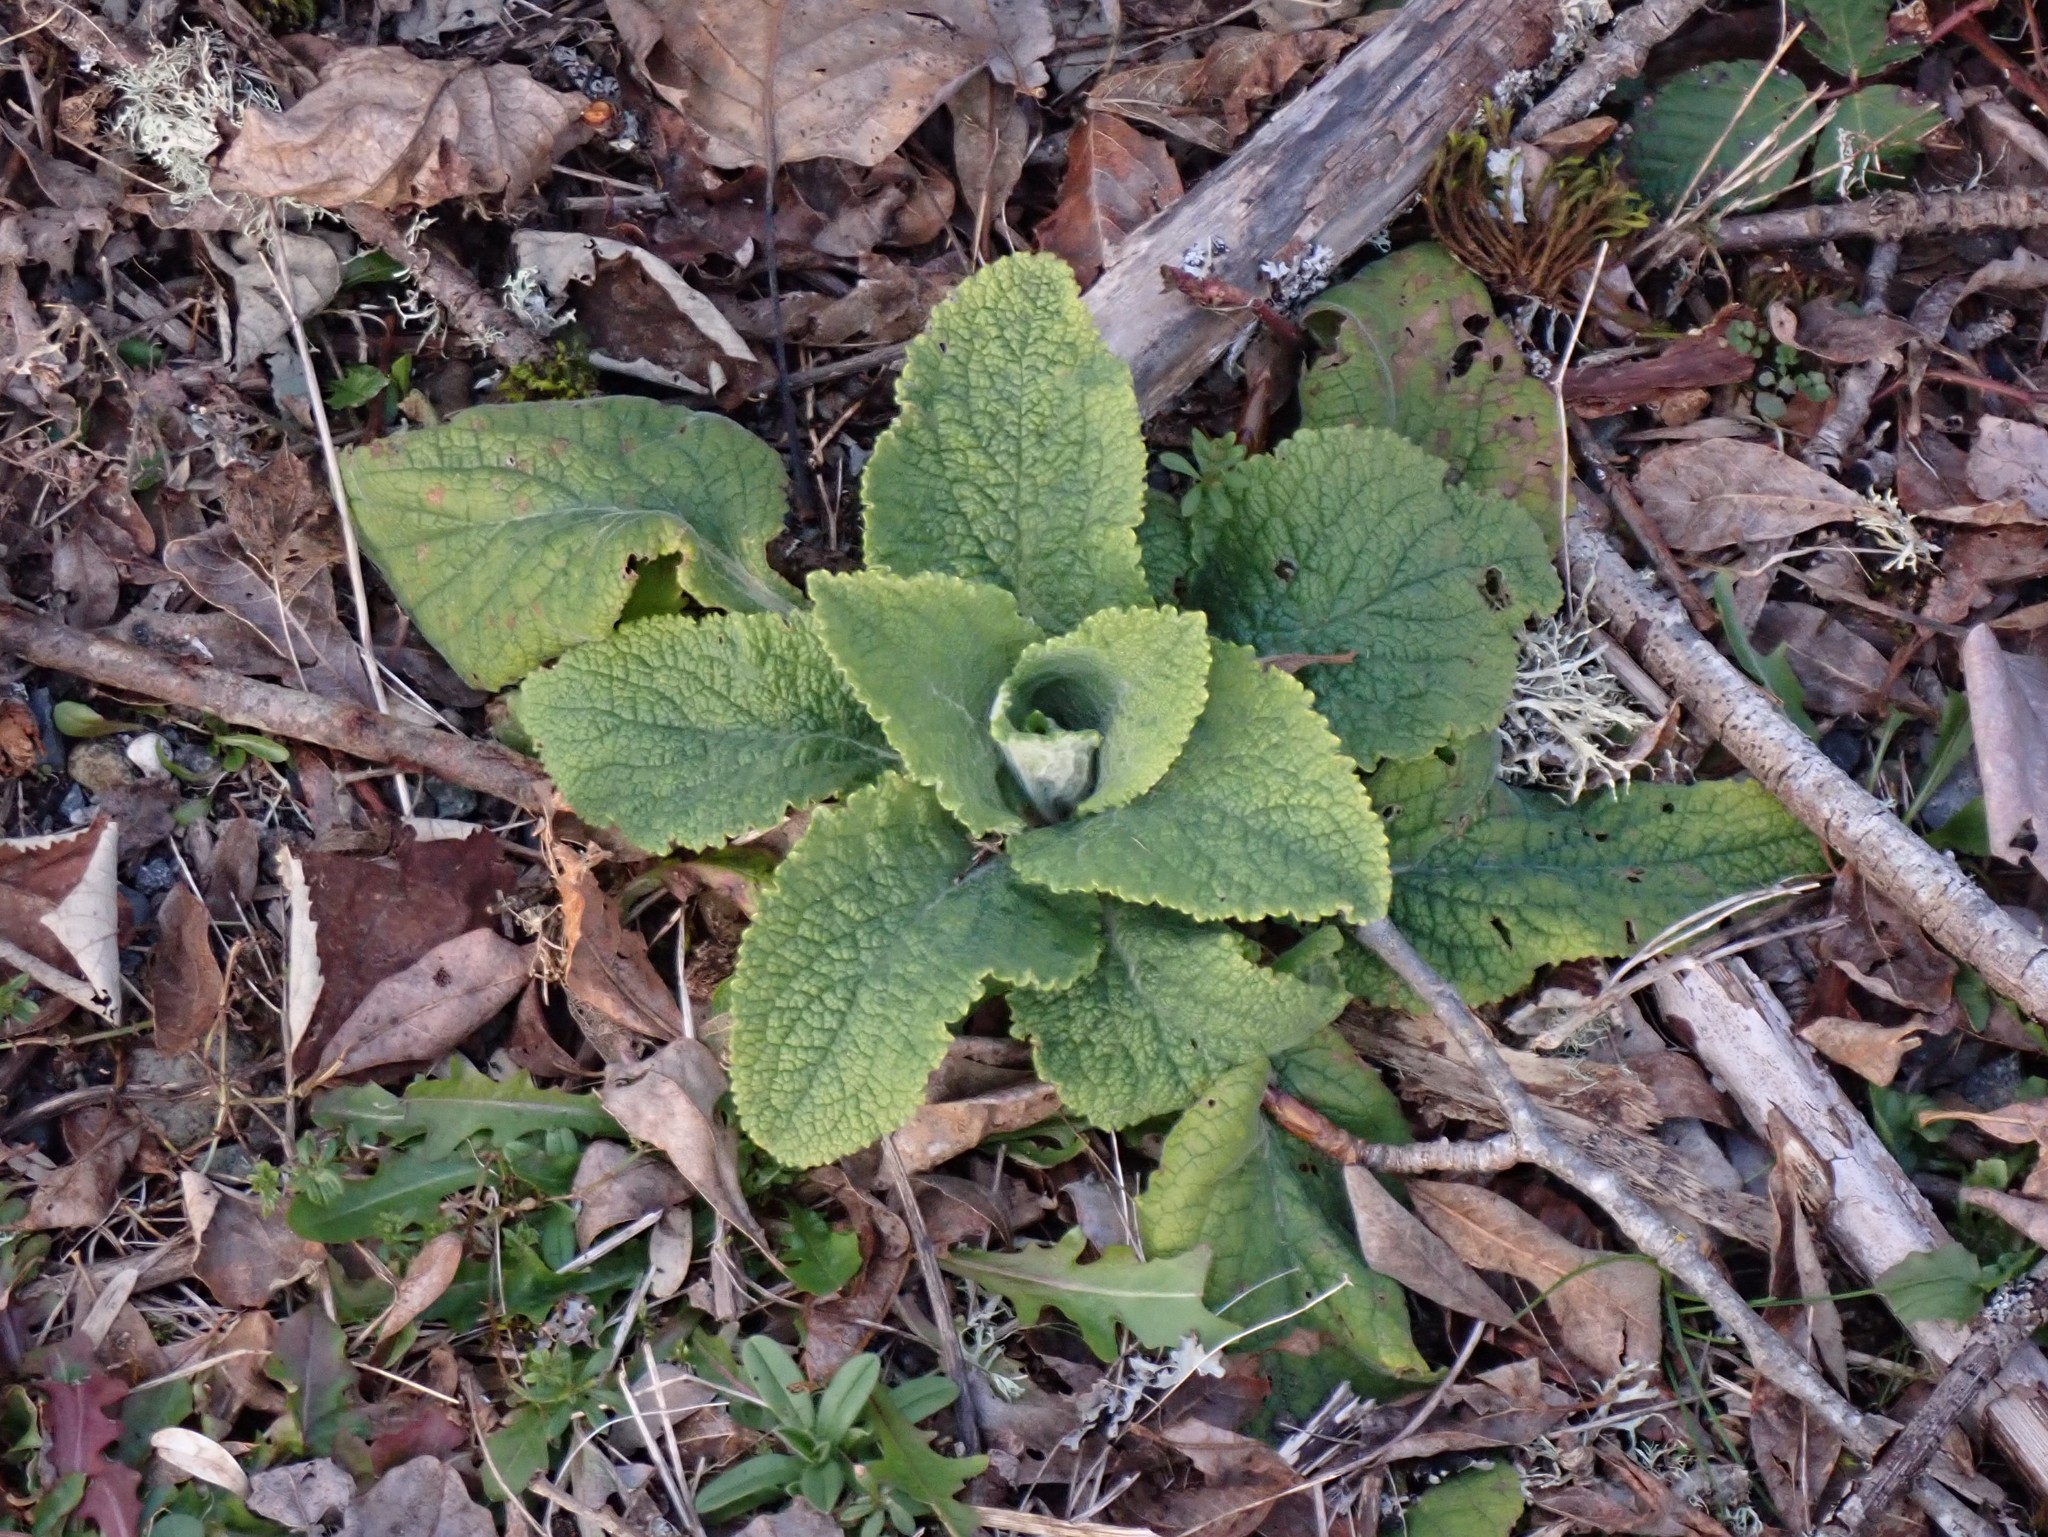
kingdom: Plantae
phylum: Tracheophyta
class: Magnoliopsida
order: Lamiales
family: Plantaginaceae
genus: Digitalis
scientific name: Digitalis purpurea
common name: Foxglove
